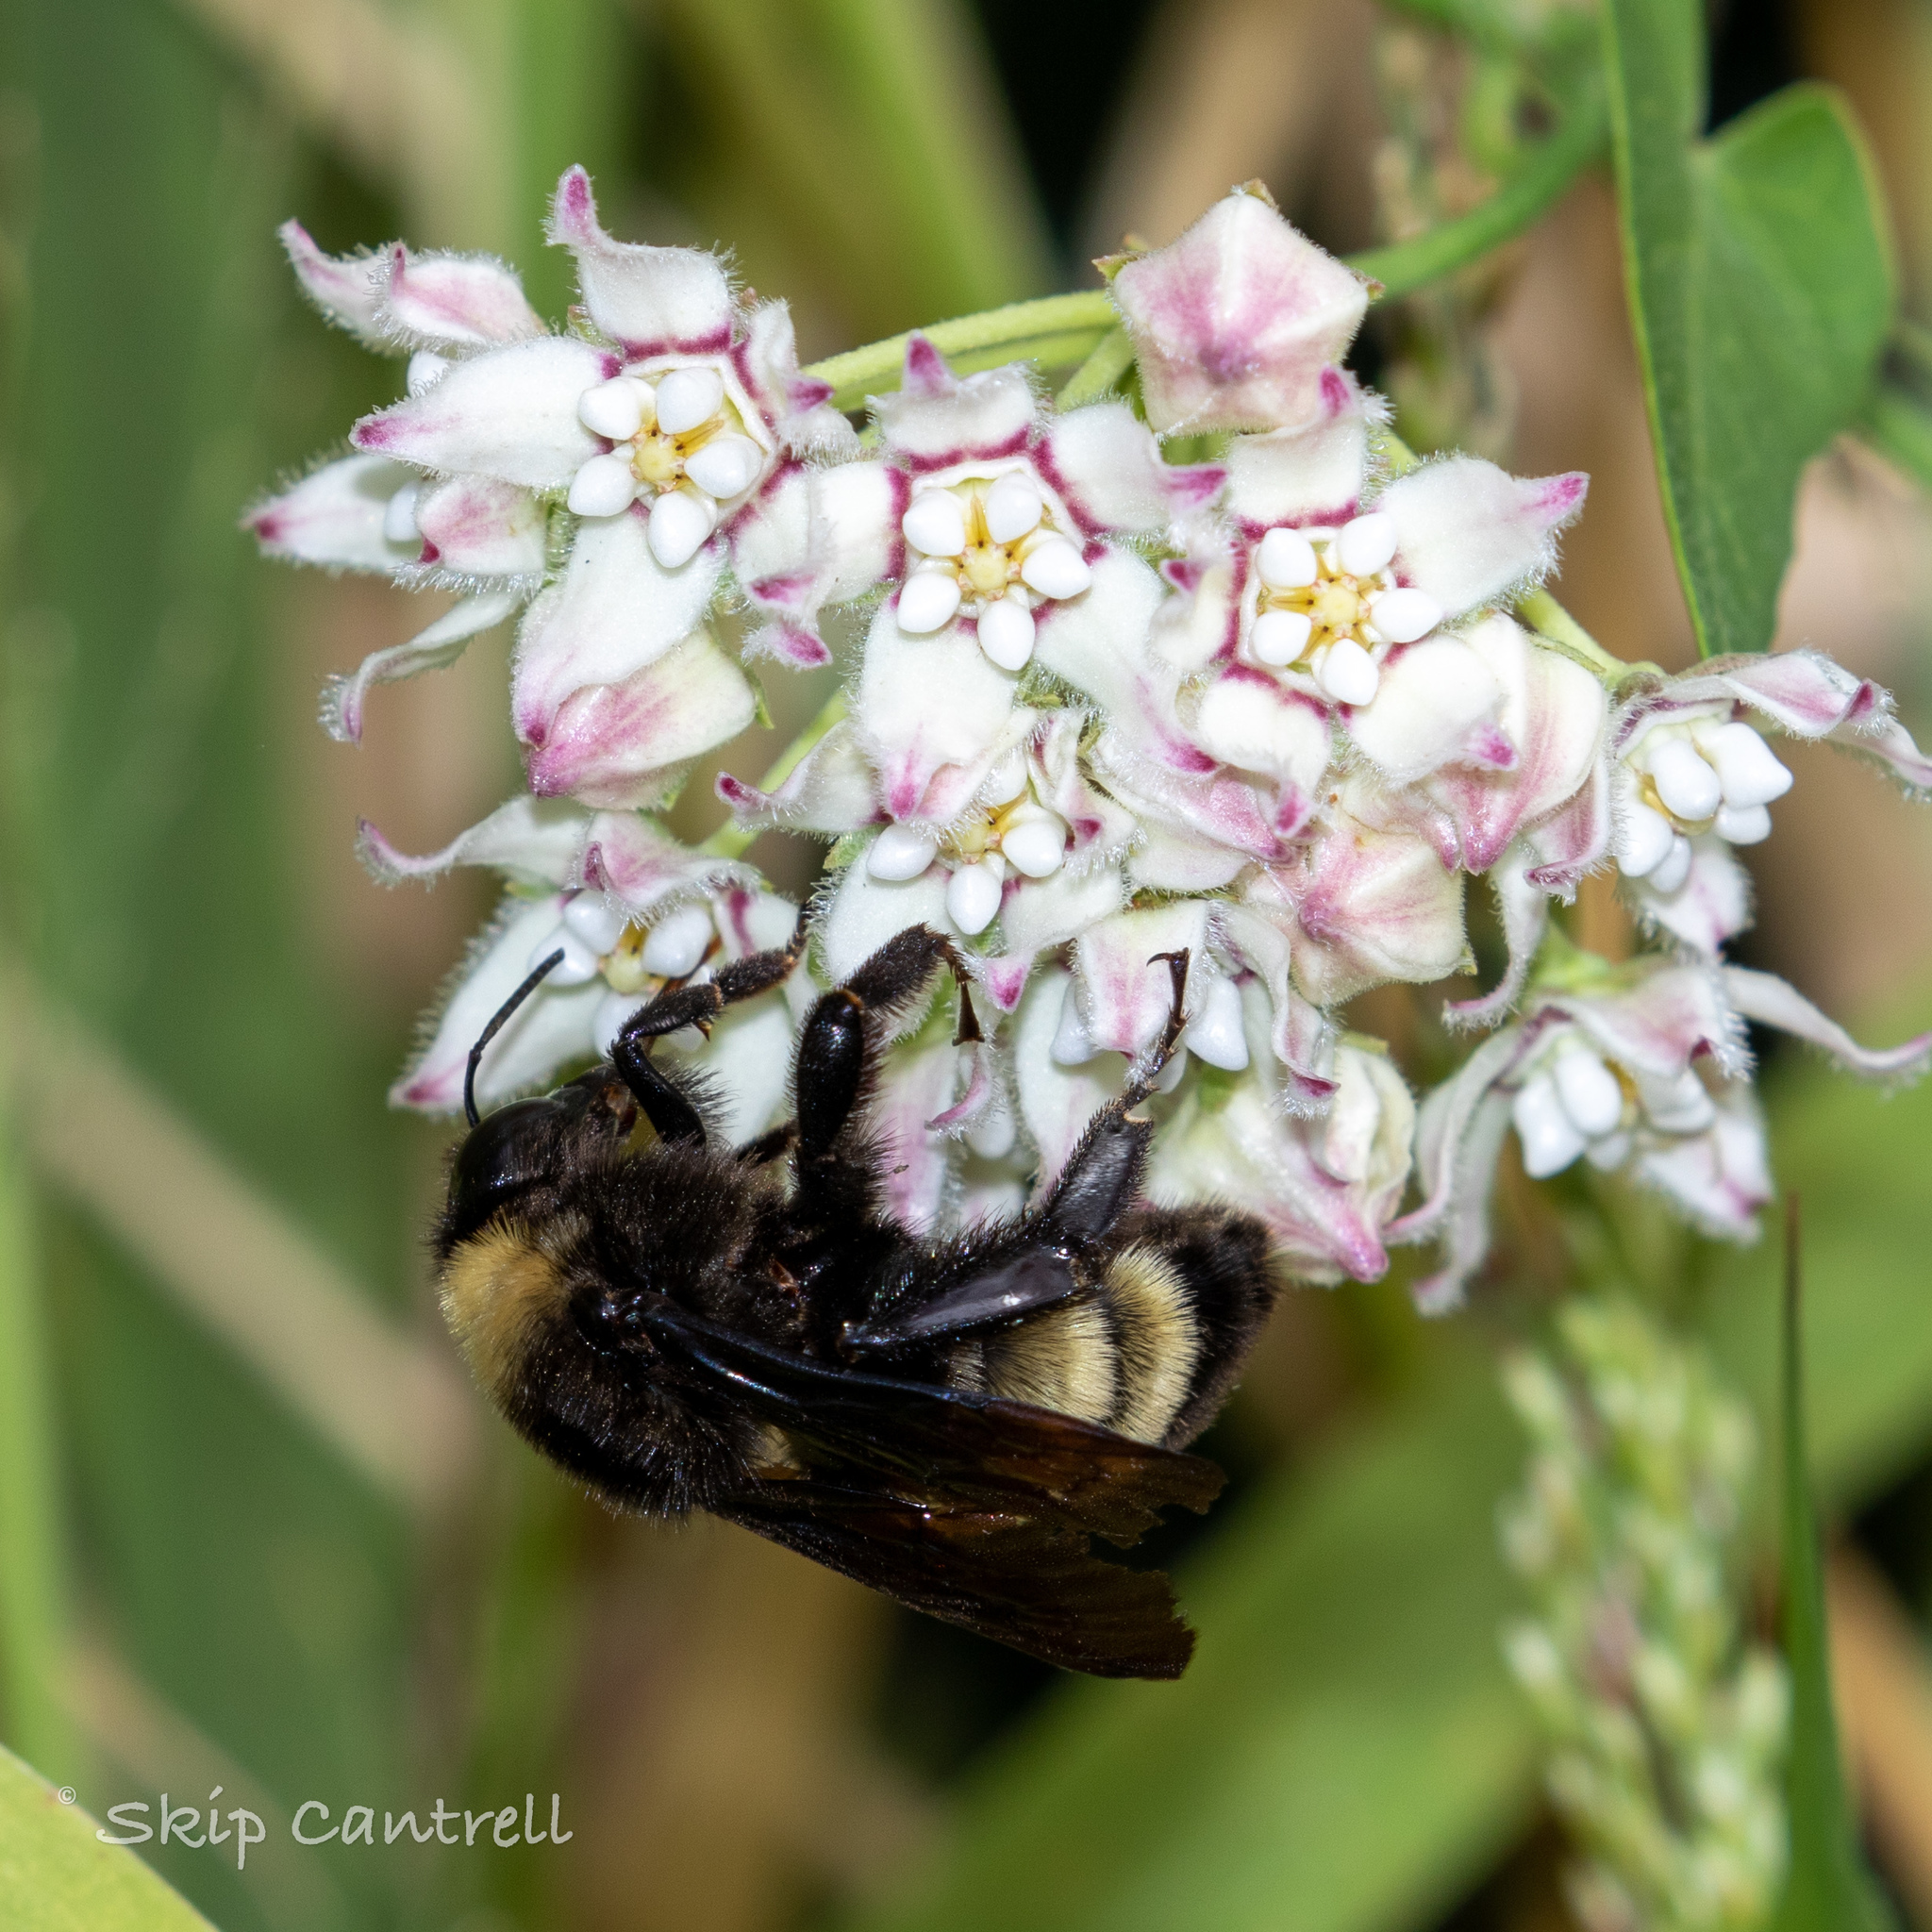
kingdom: Animalia
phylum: Arthropoda
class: Insecta
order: Hymenoptera
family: Apidae
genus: Bombus
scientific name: Bombus pensylvanicus
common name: Bumble bee
